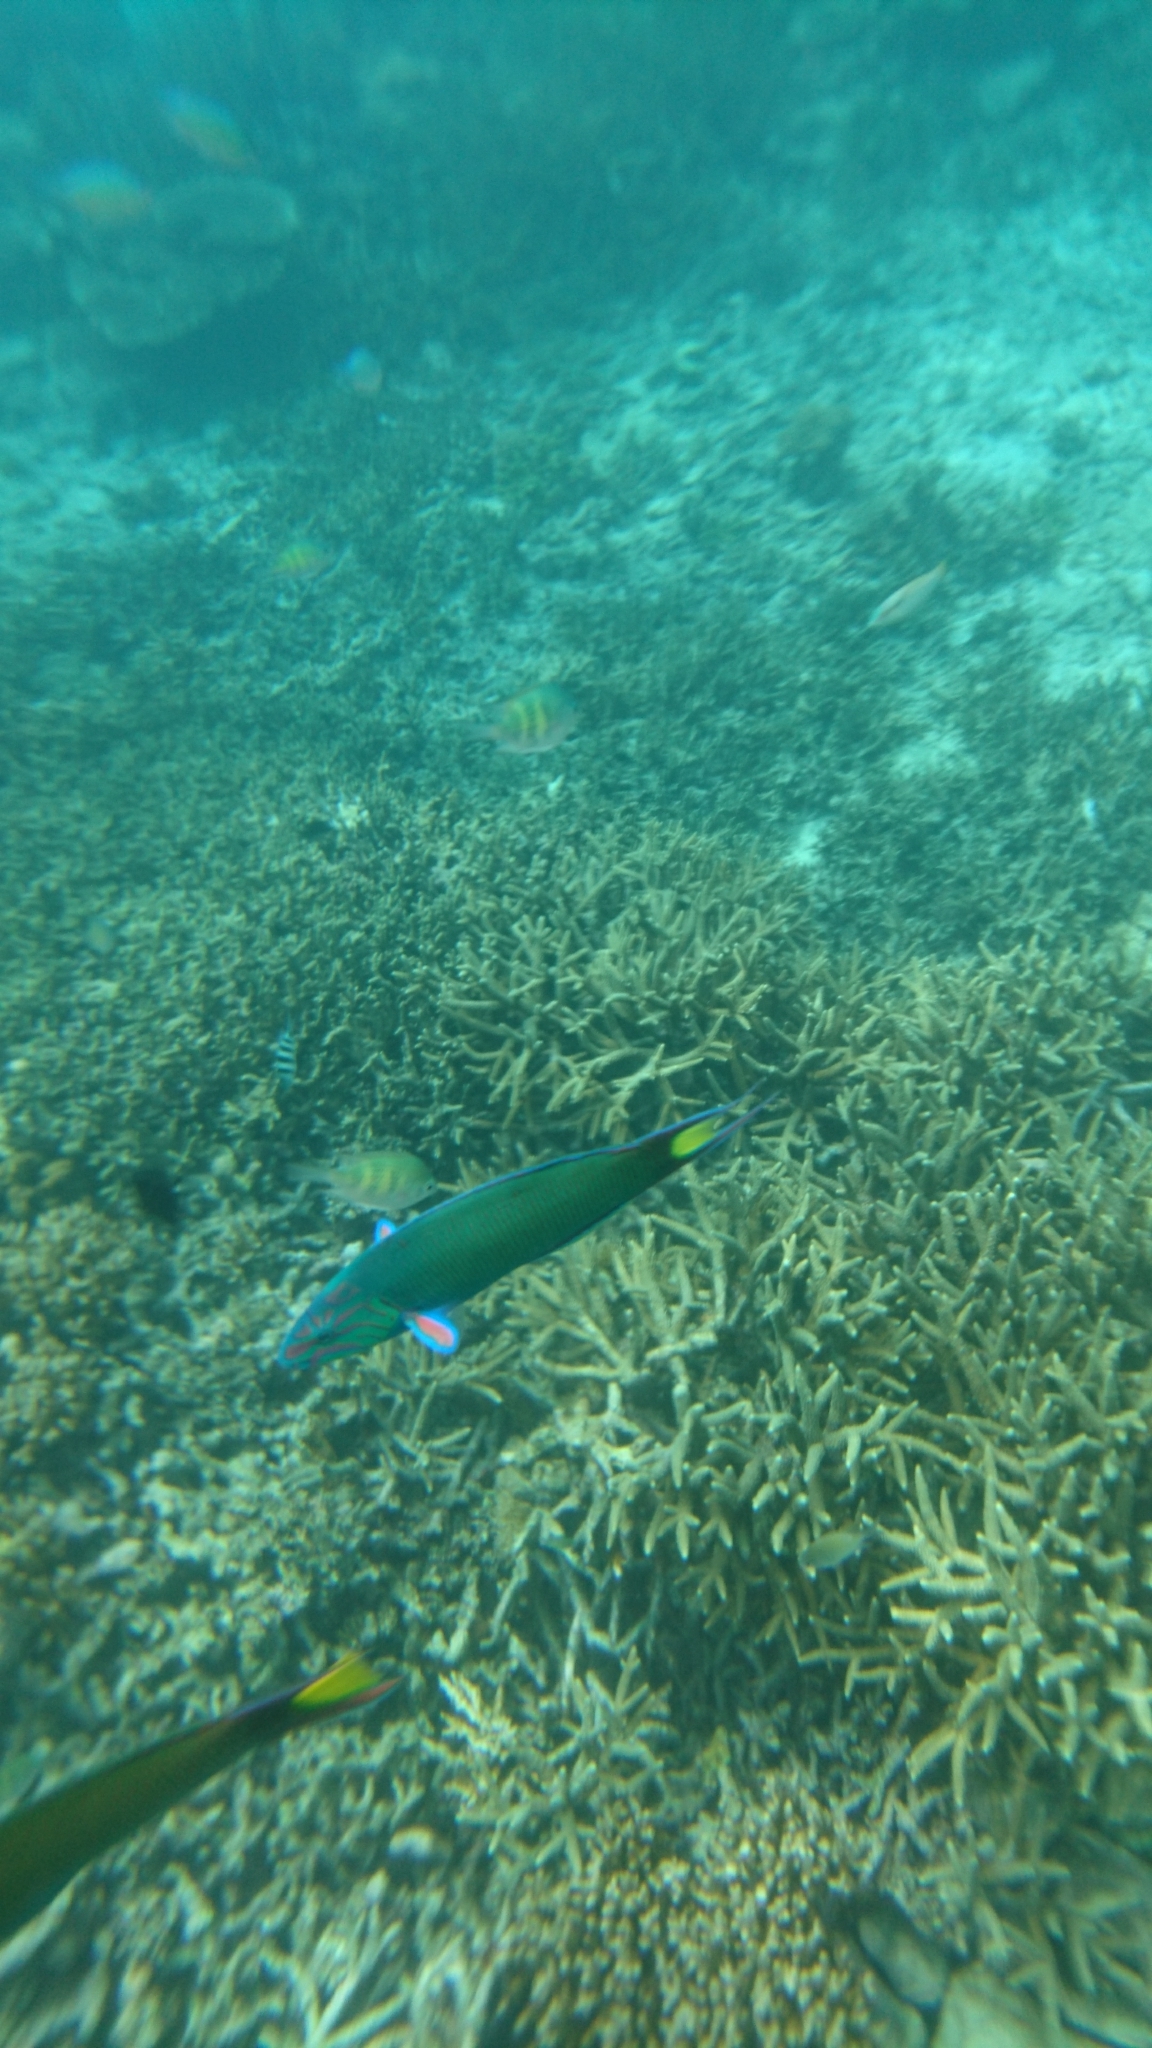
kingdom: Animalia
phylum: Chordata
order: Perciformes
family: Labridae
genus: Thalassoma
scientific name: Thalassoma lunare
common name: Blue wrasse
